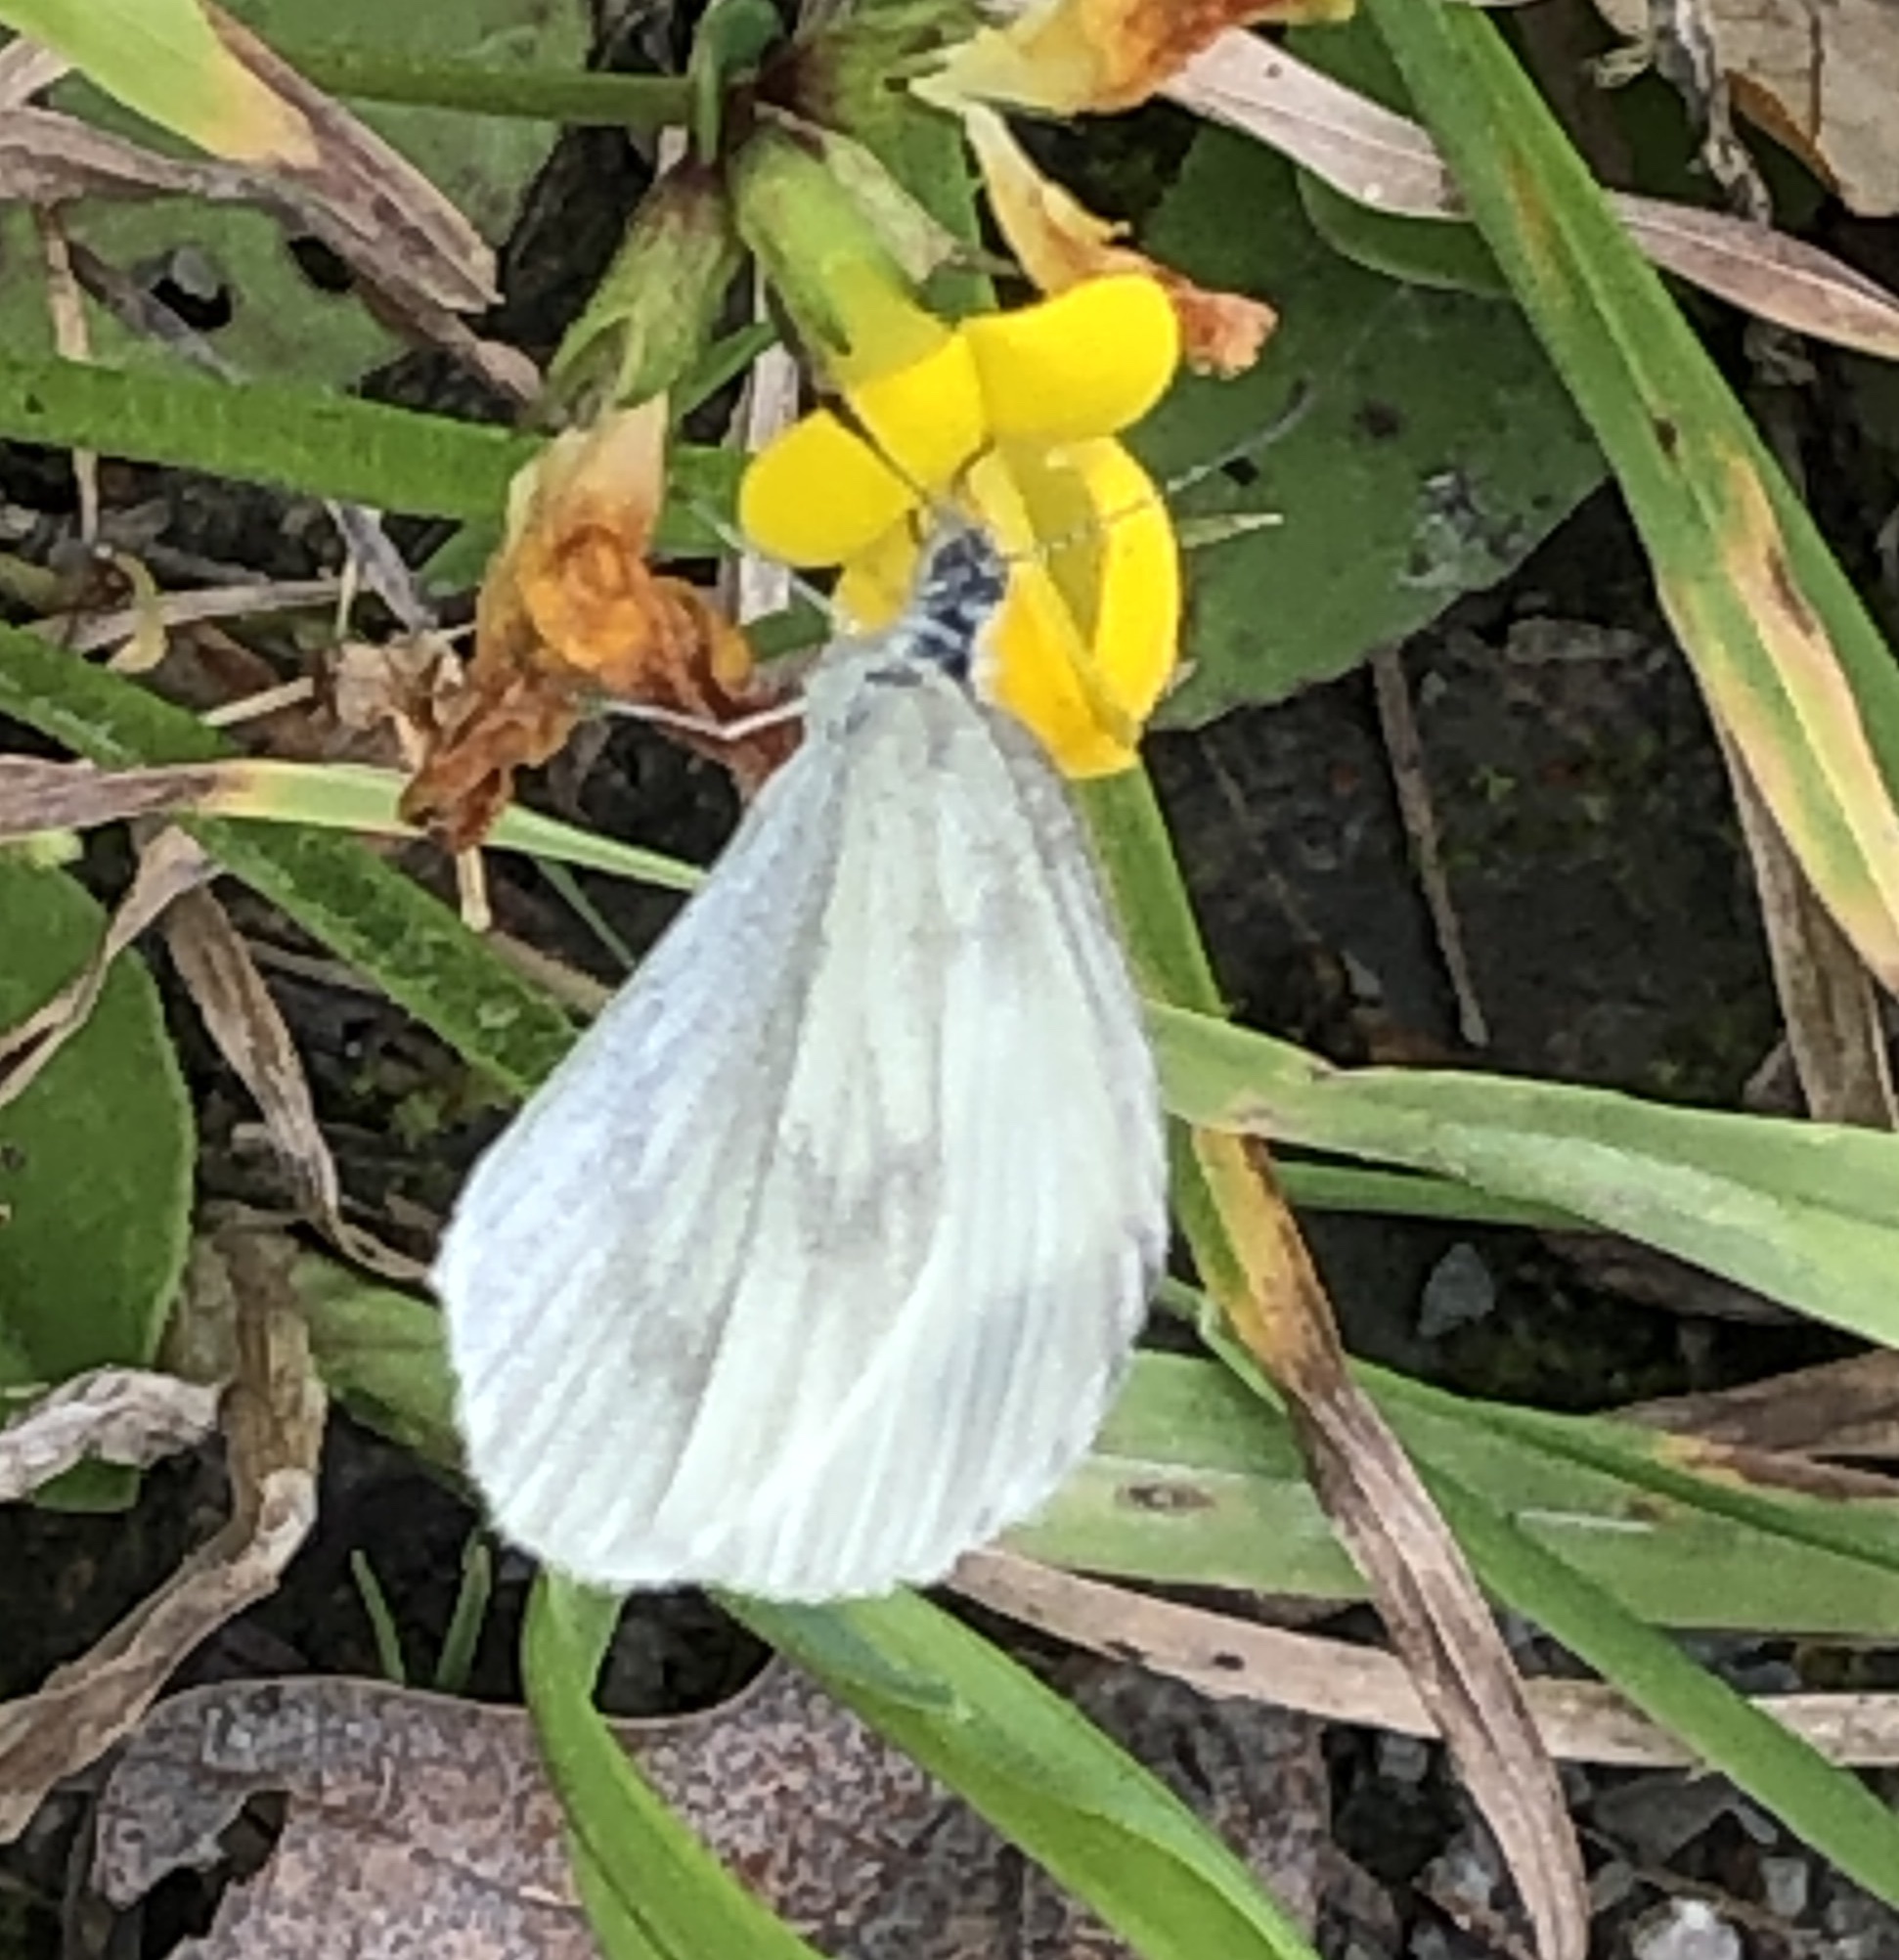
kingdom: Animalia
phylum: Arthropoda
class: Insecta
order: Lepidoptera
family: Pieridae
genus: Leptidea
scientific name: Leptidea sinapis
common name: Wood white
